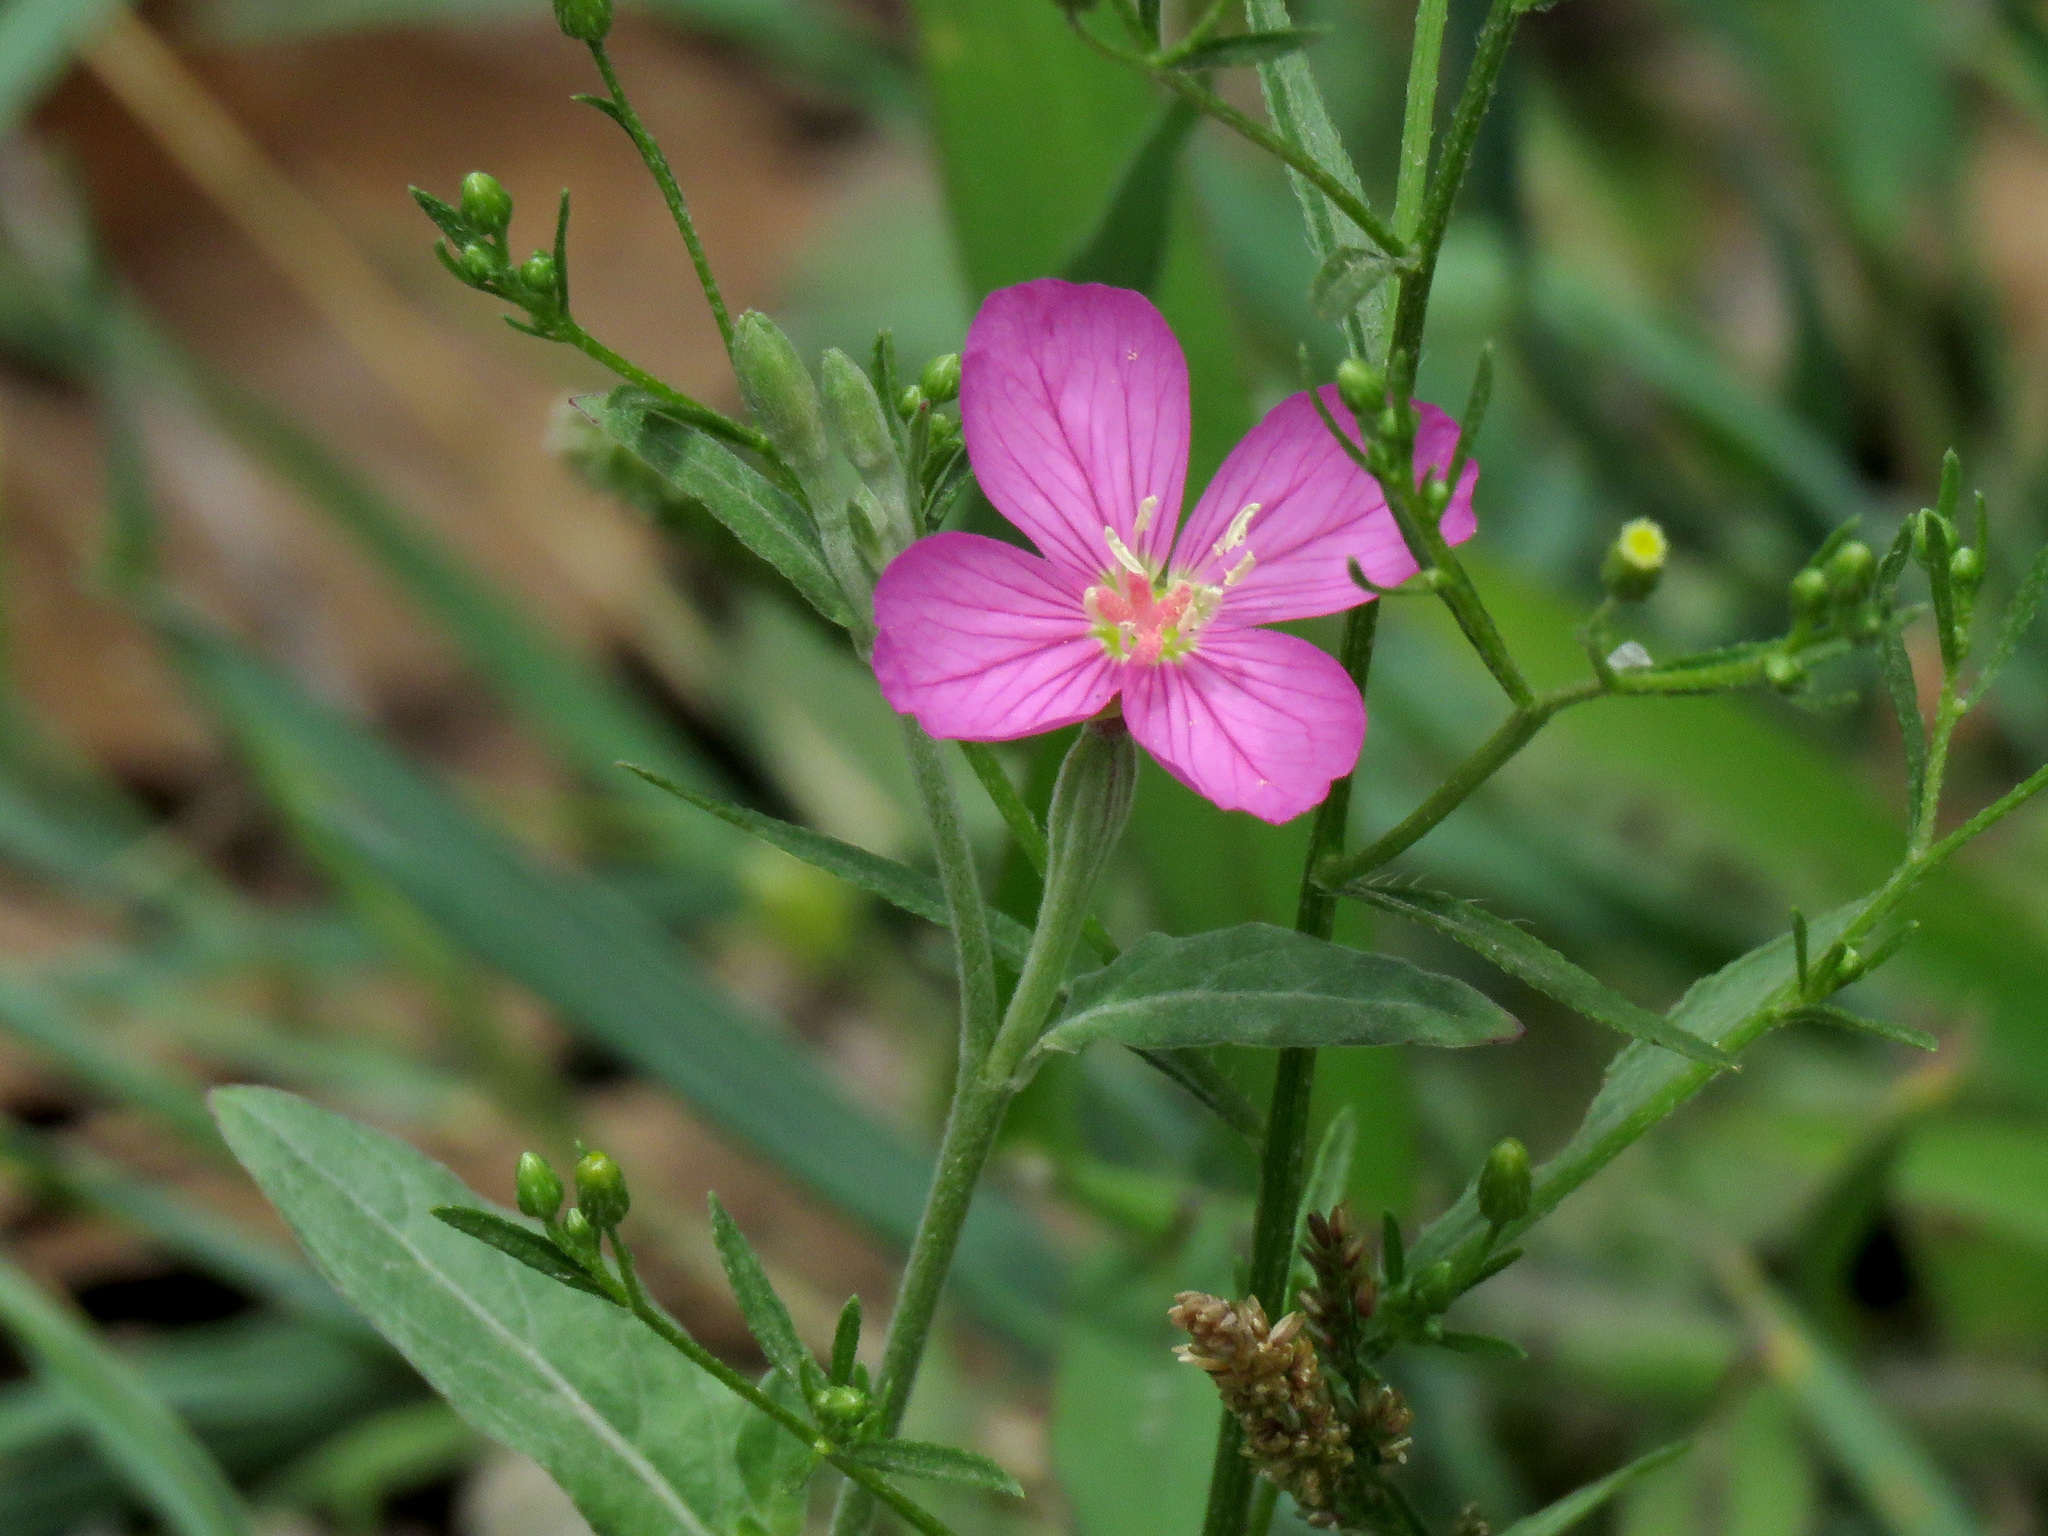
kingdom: Plantae
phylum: Tracheophyta
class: Magnoliopsida
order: Myrtales
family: Onagraceae
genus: Oenothera
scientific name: Oenothera rosea
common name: Rosy evening-primrose
